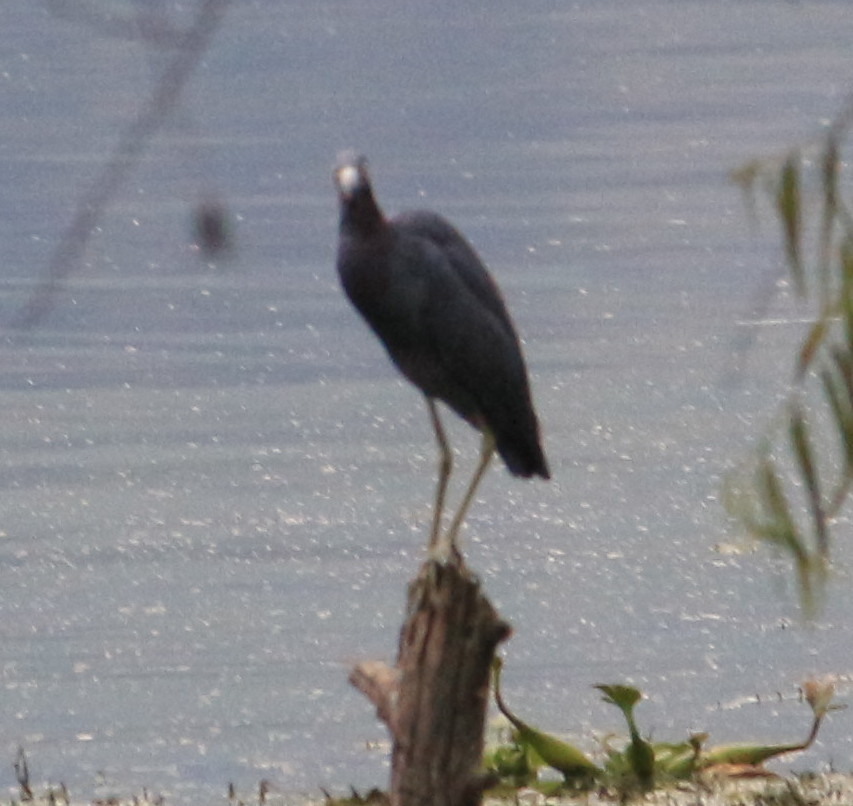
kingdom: Animalia
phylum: Chordata
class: Aves
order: Pelecaniformes
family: Ardeidae
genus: Egretta
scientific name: Egretta caerulea
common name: Little blue heron
